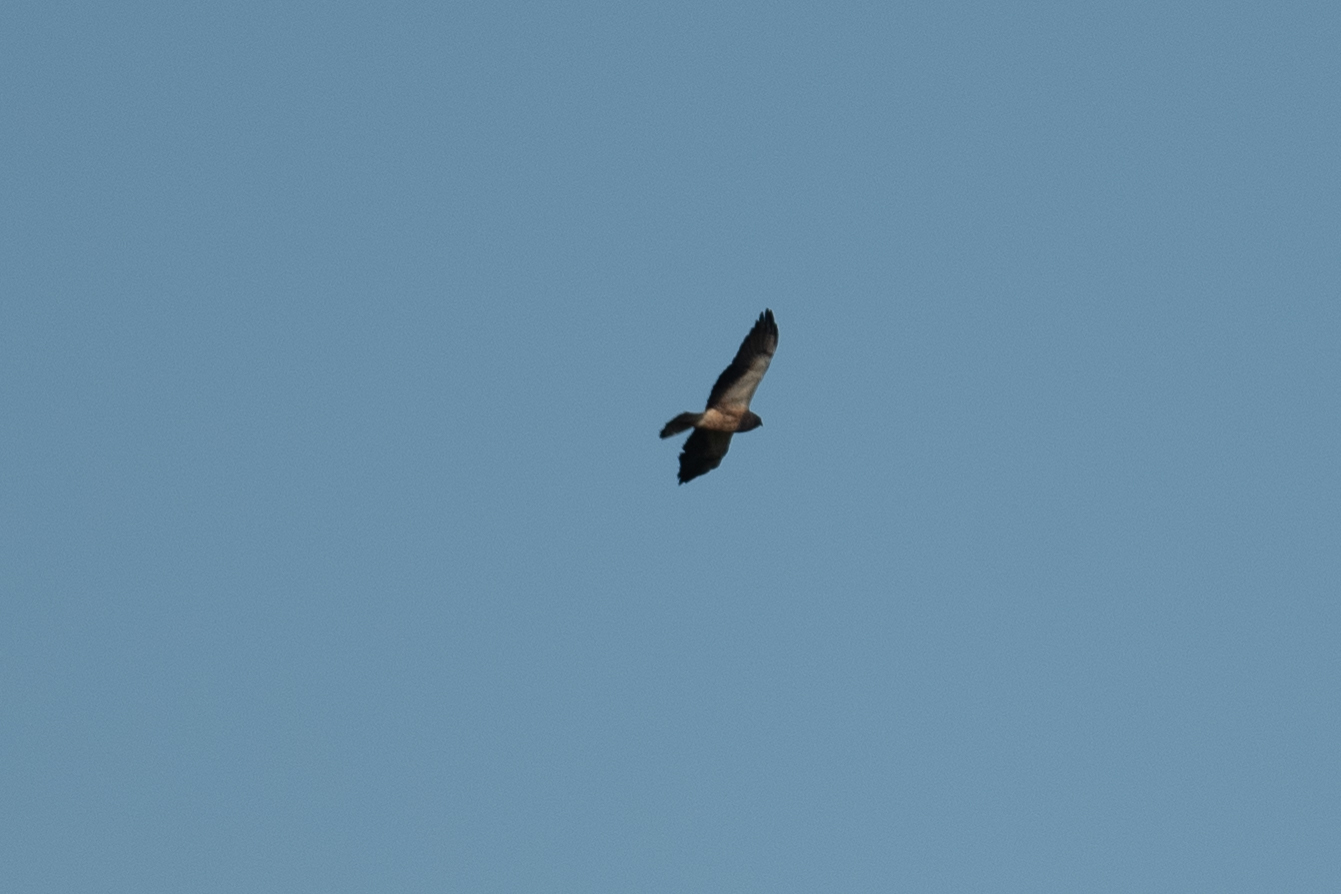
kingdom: Animalia
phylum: Chordata
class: Aves
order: Accipitriformes
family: Accipitridae
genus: Buteo
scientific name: Buteo swainsoni
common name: Swainson's hawk
